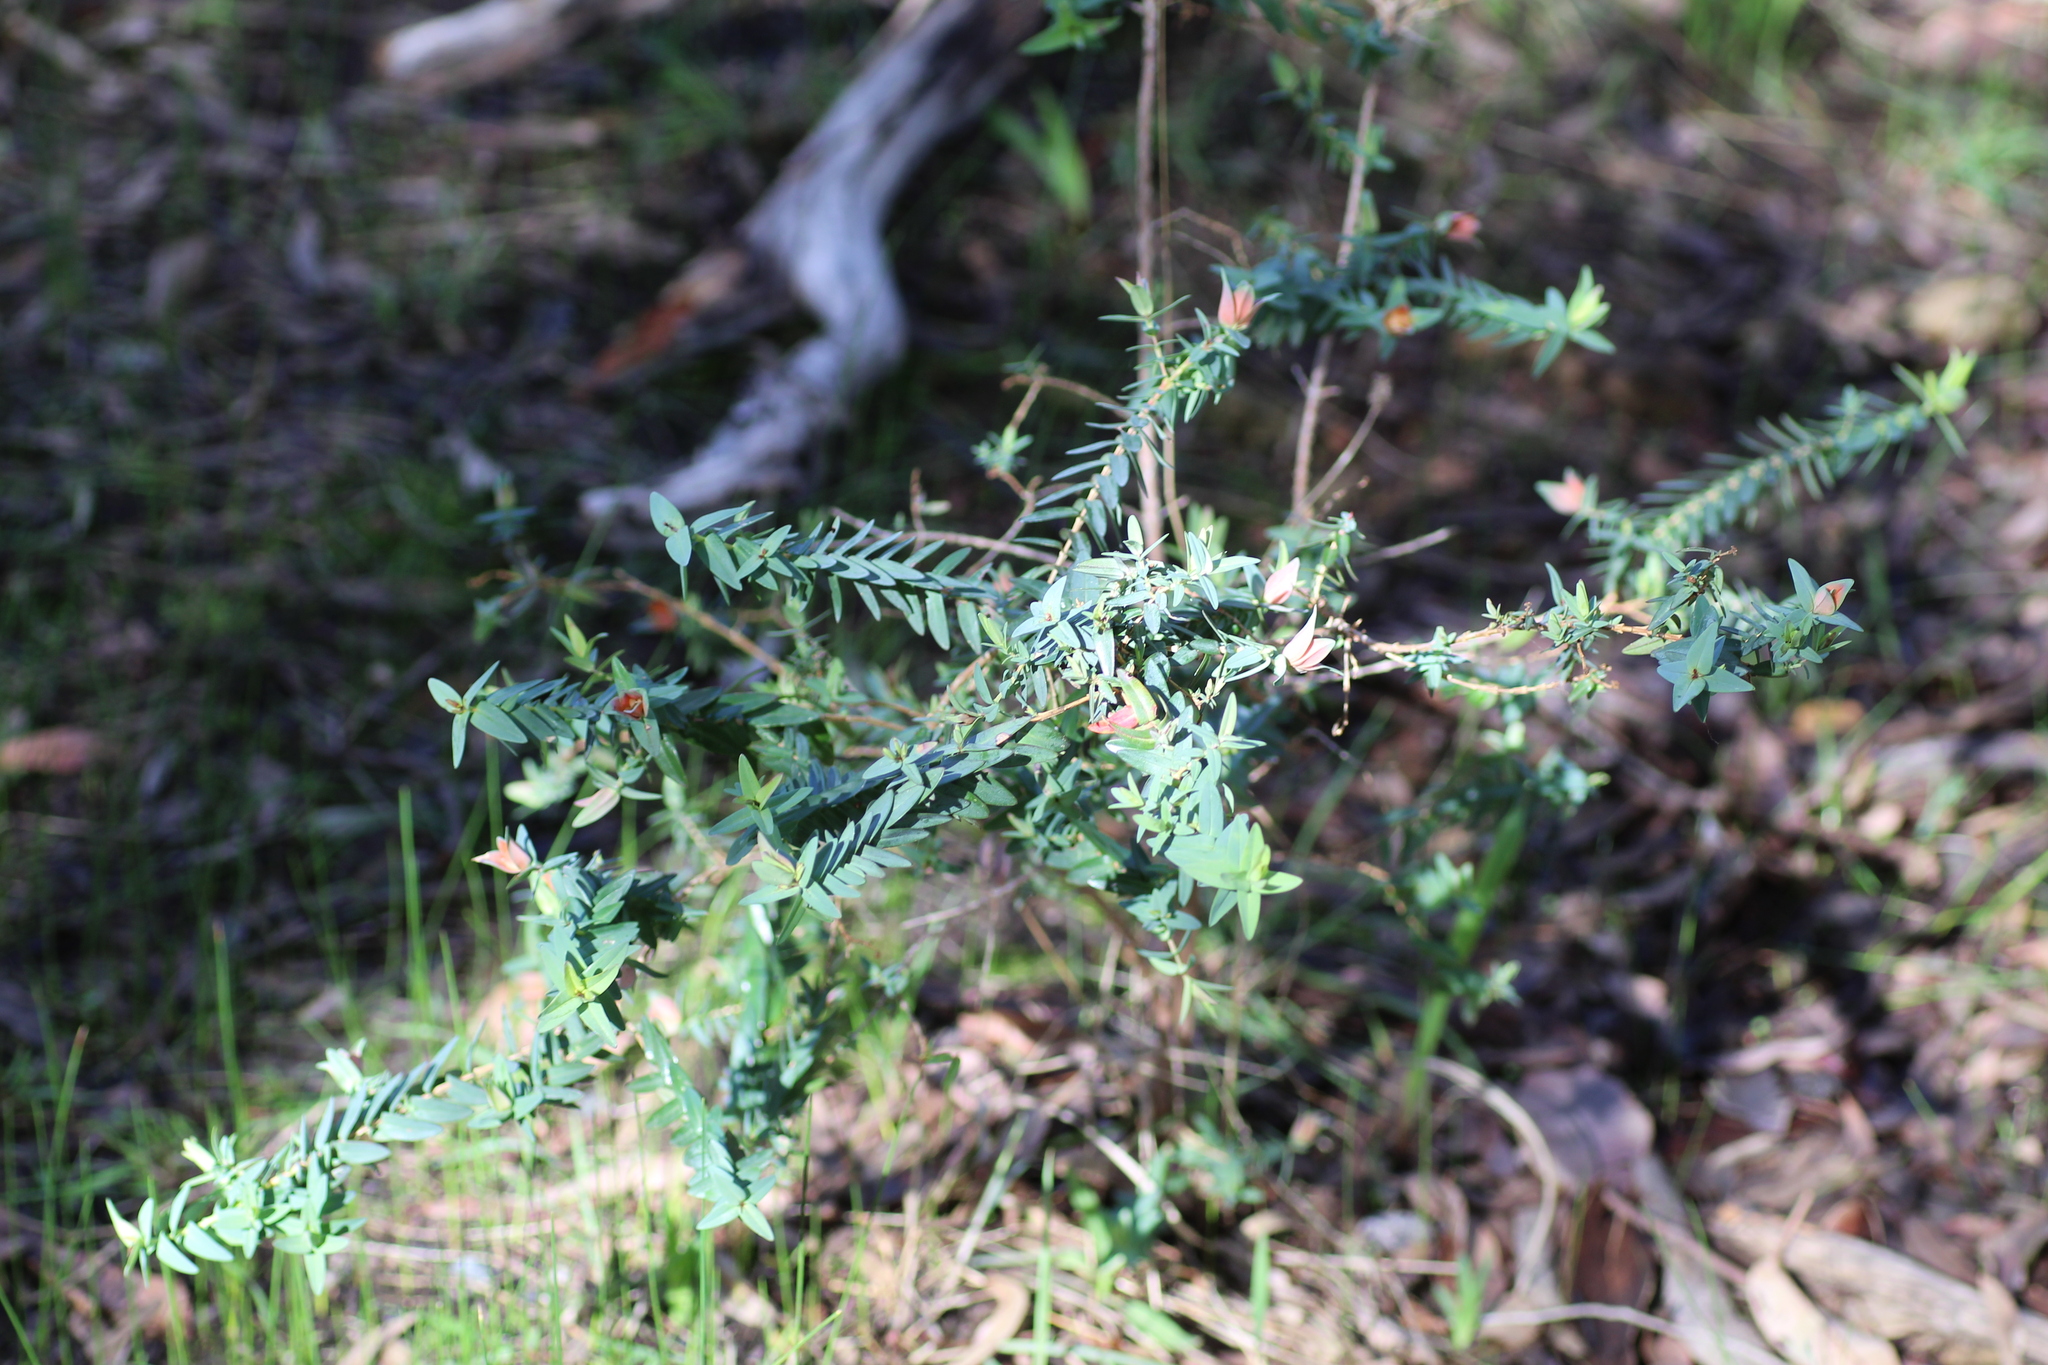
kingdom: Plantae
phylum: Tracheophyta
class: Magnoliopsida
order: Myrtales
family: Myrtaceae
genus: Darwinia
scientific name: Darwinia citriodora
